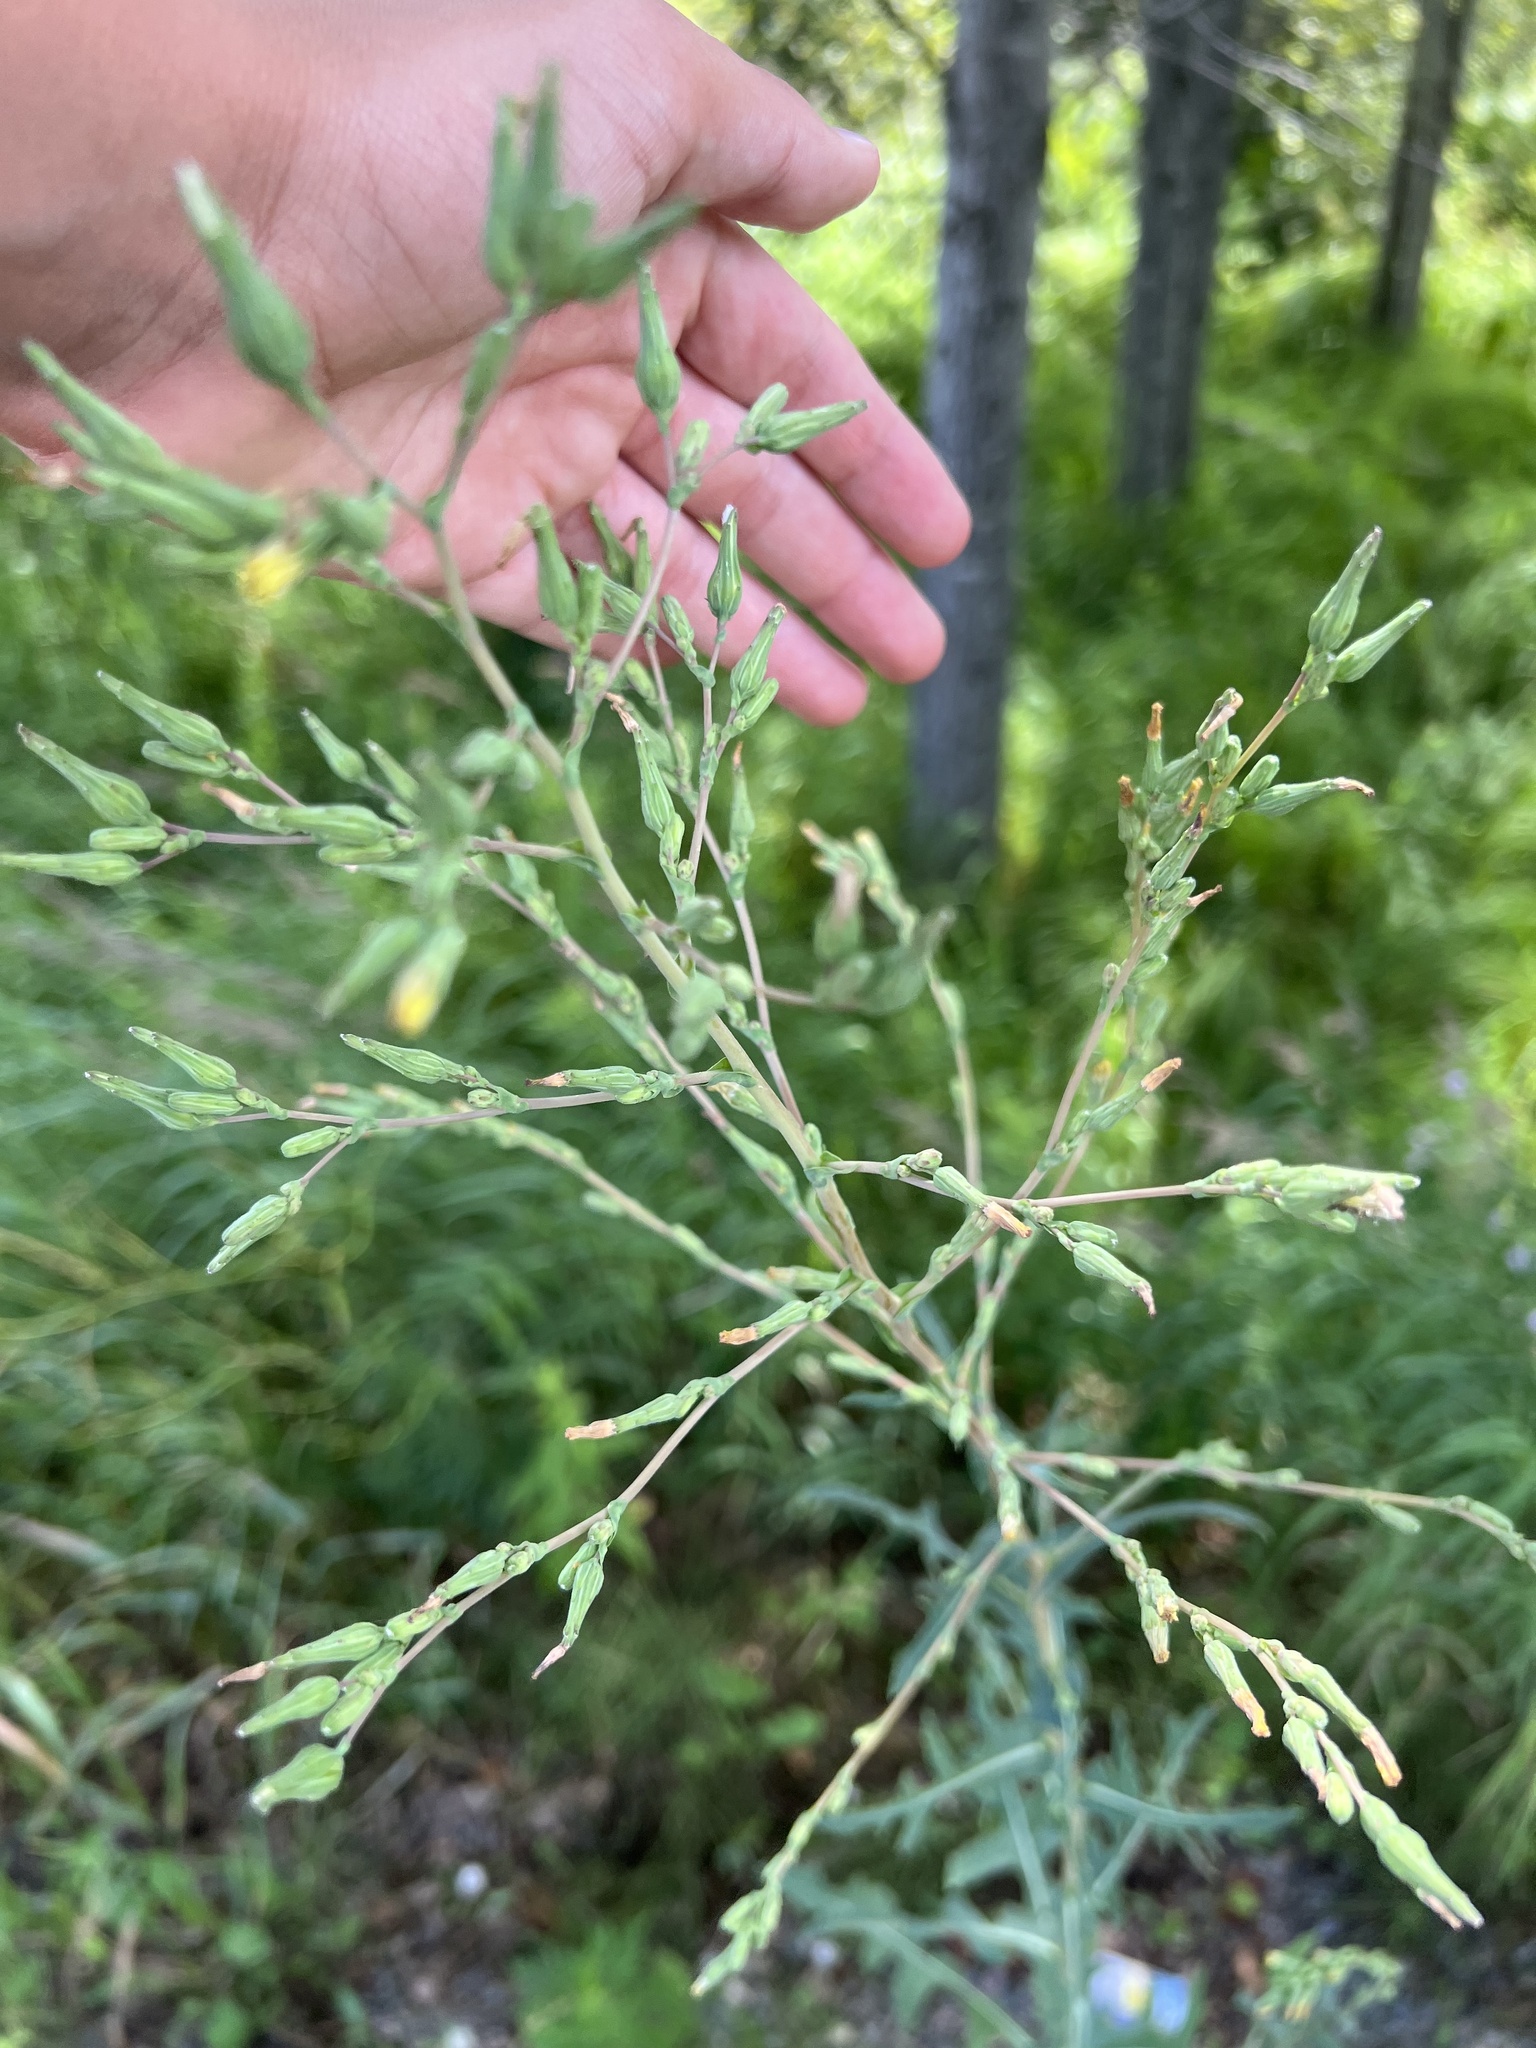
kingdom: Plantae
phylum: Tracheophyta
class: Magnoliopsida
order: Asterales
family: Asteraceae
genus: Lactuca
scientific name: Lactuca serriola
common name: Prickly lettuce
